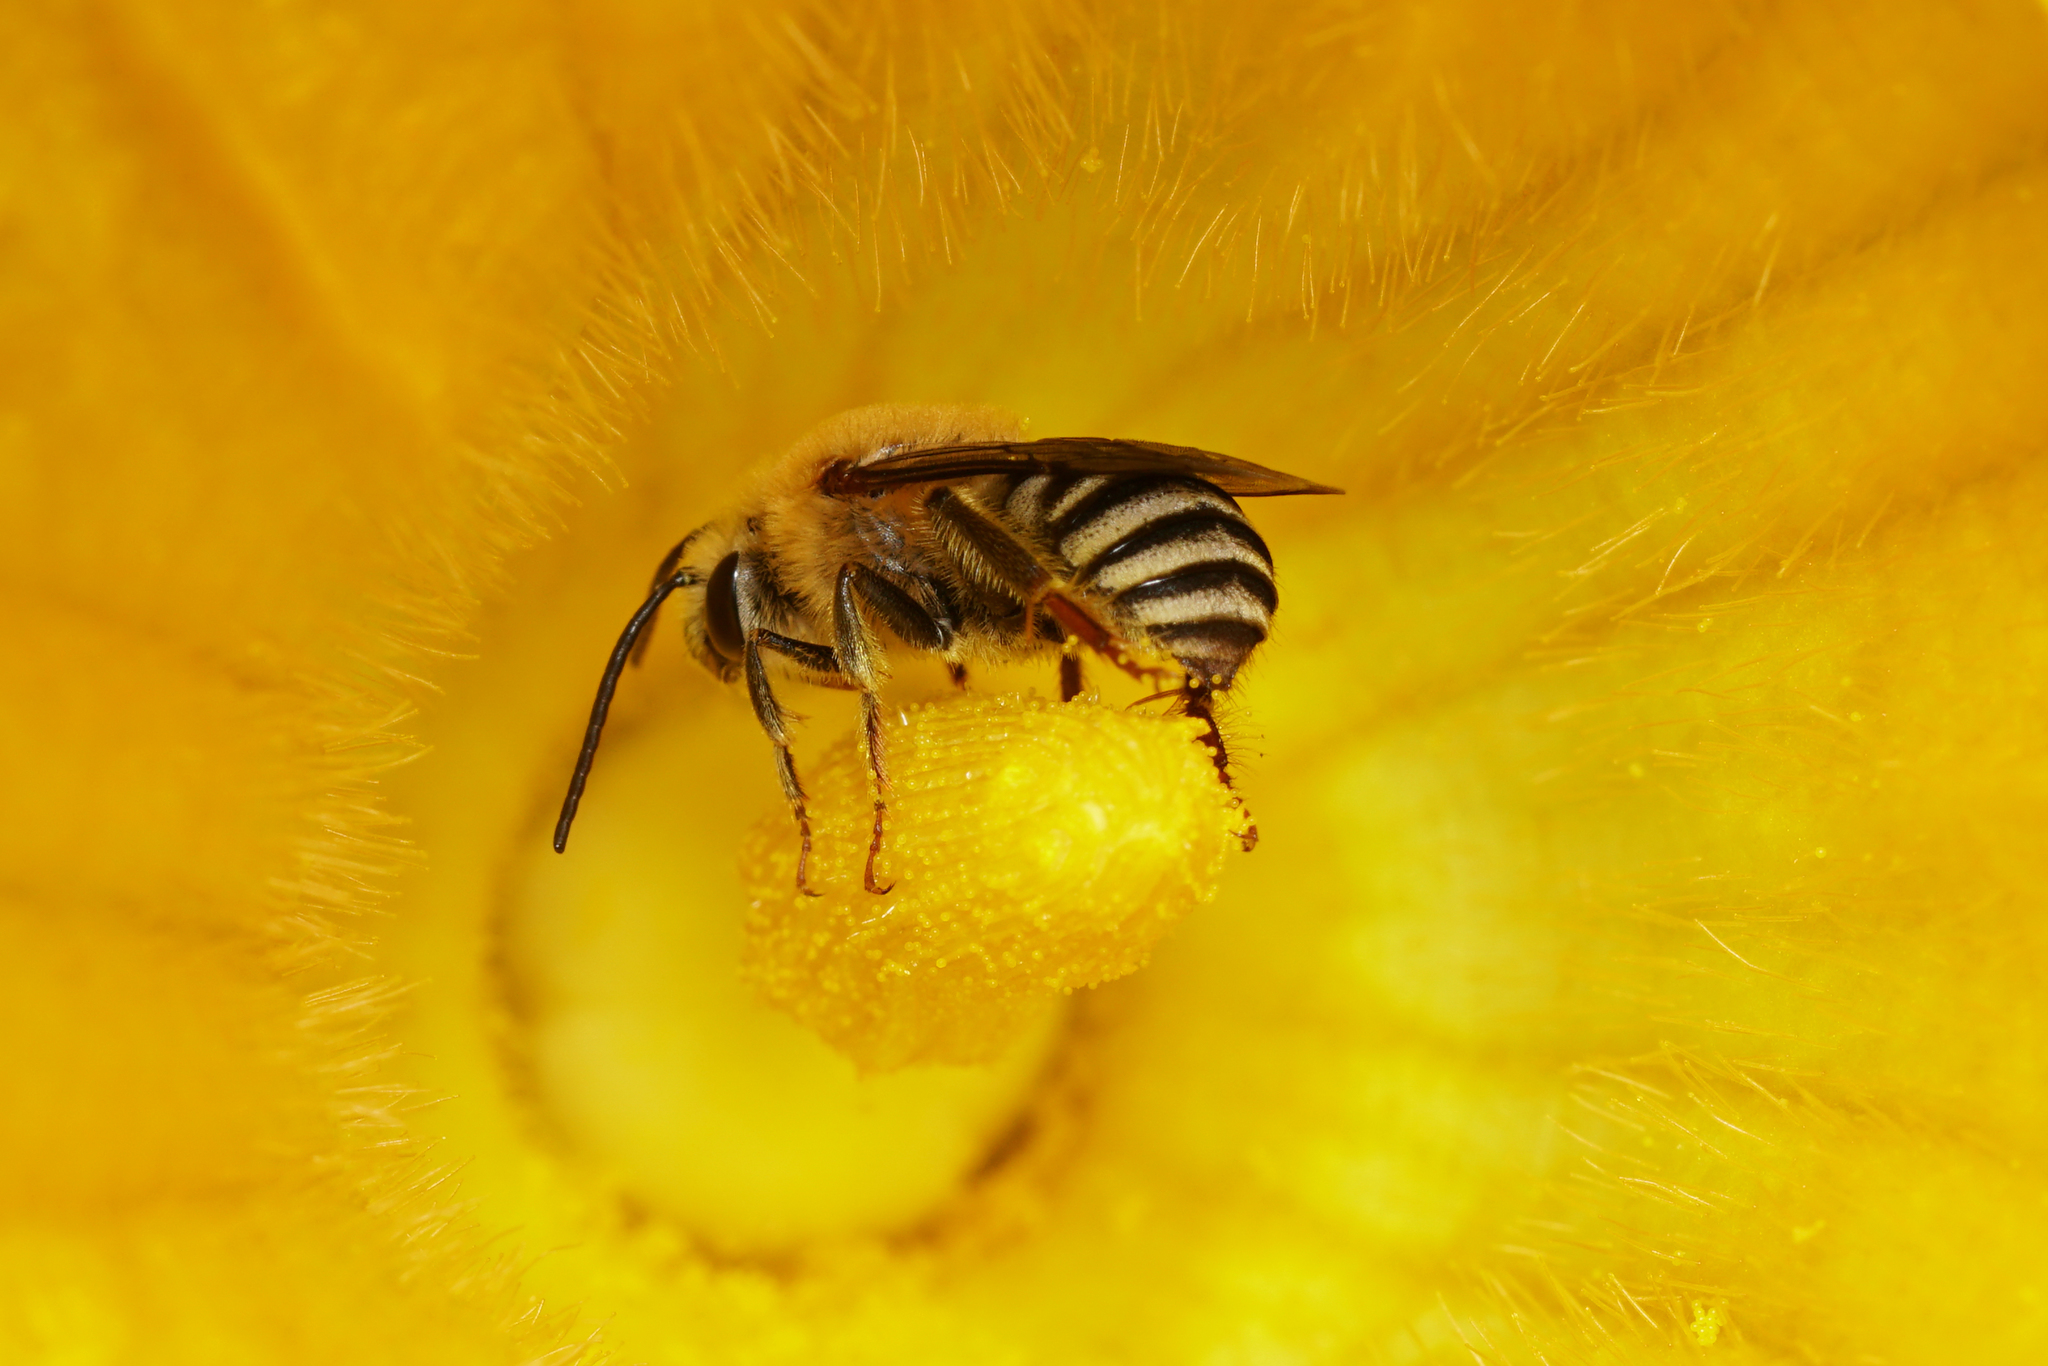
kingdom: Animalia
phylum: Arthropoda
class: Insecta
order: Hymenoptera
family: Apidae
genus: Peponapis
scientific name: Peponapis pruinosa
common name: Pruinose squash bee
